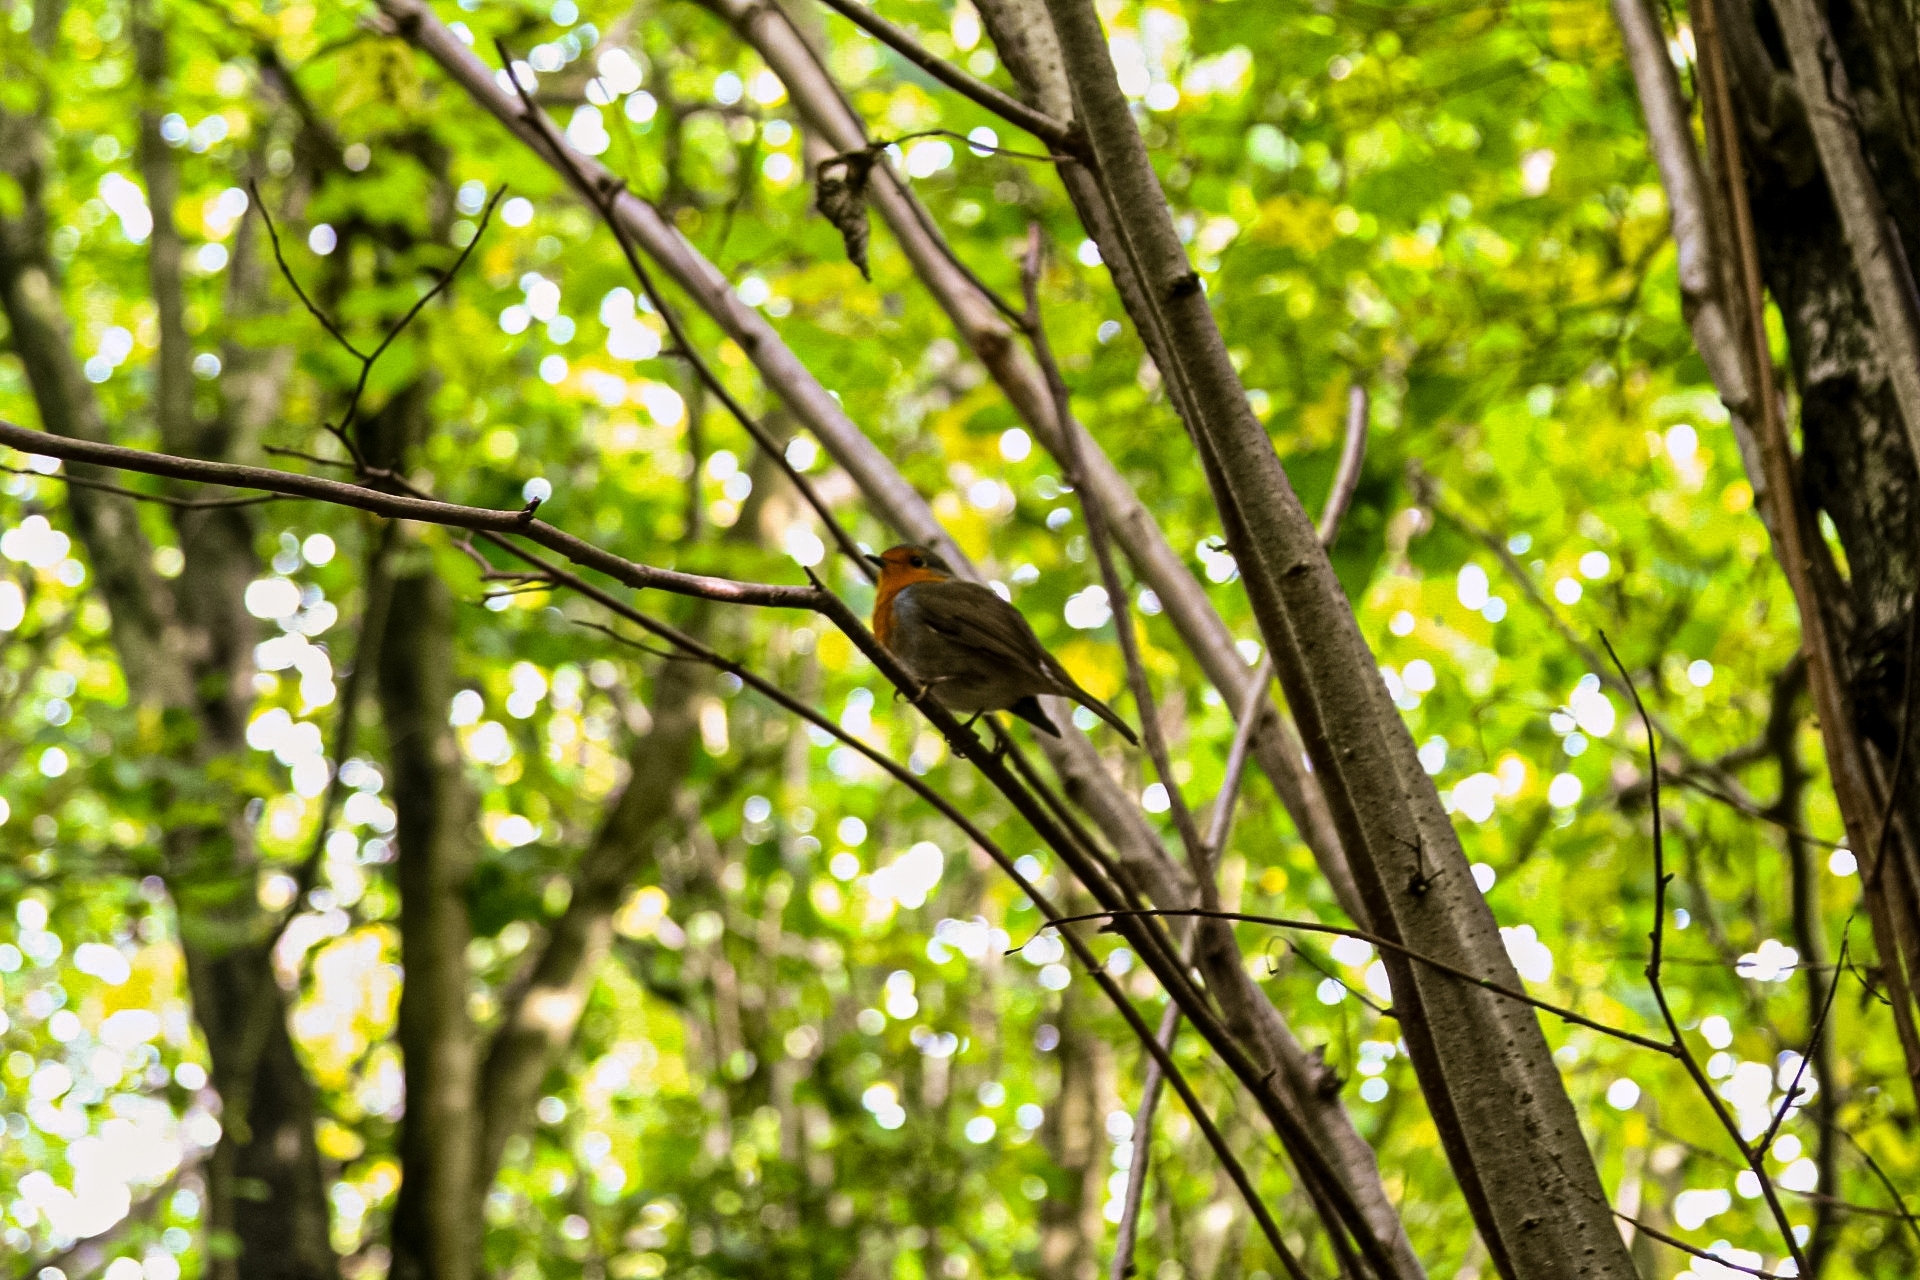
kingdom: Animalia
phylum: Chordata
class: Aves
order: Passeriformes
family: Muscicapidae
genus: Erithacus
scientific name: Erithacus rubecula
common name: European robin
